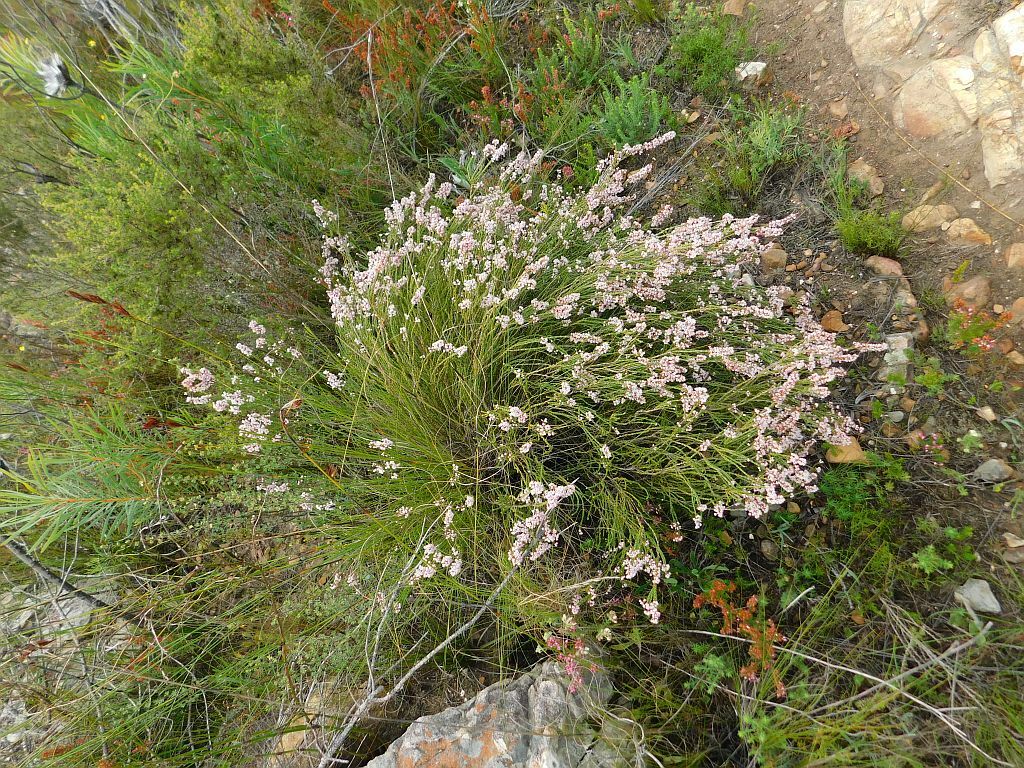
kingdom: Plantae
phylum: Tracheophyta
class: Magnoliopsida
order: Ericales
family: Ericaceae
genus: Erica
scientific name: Erica articularis
